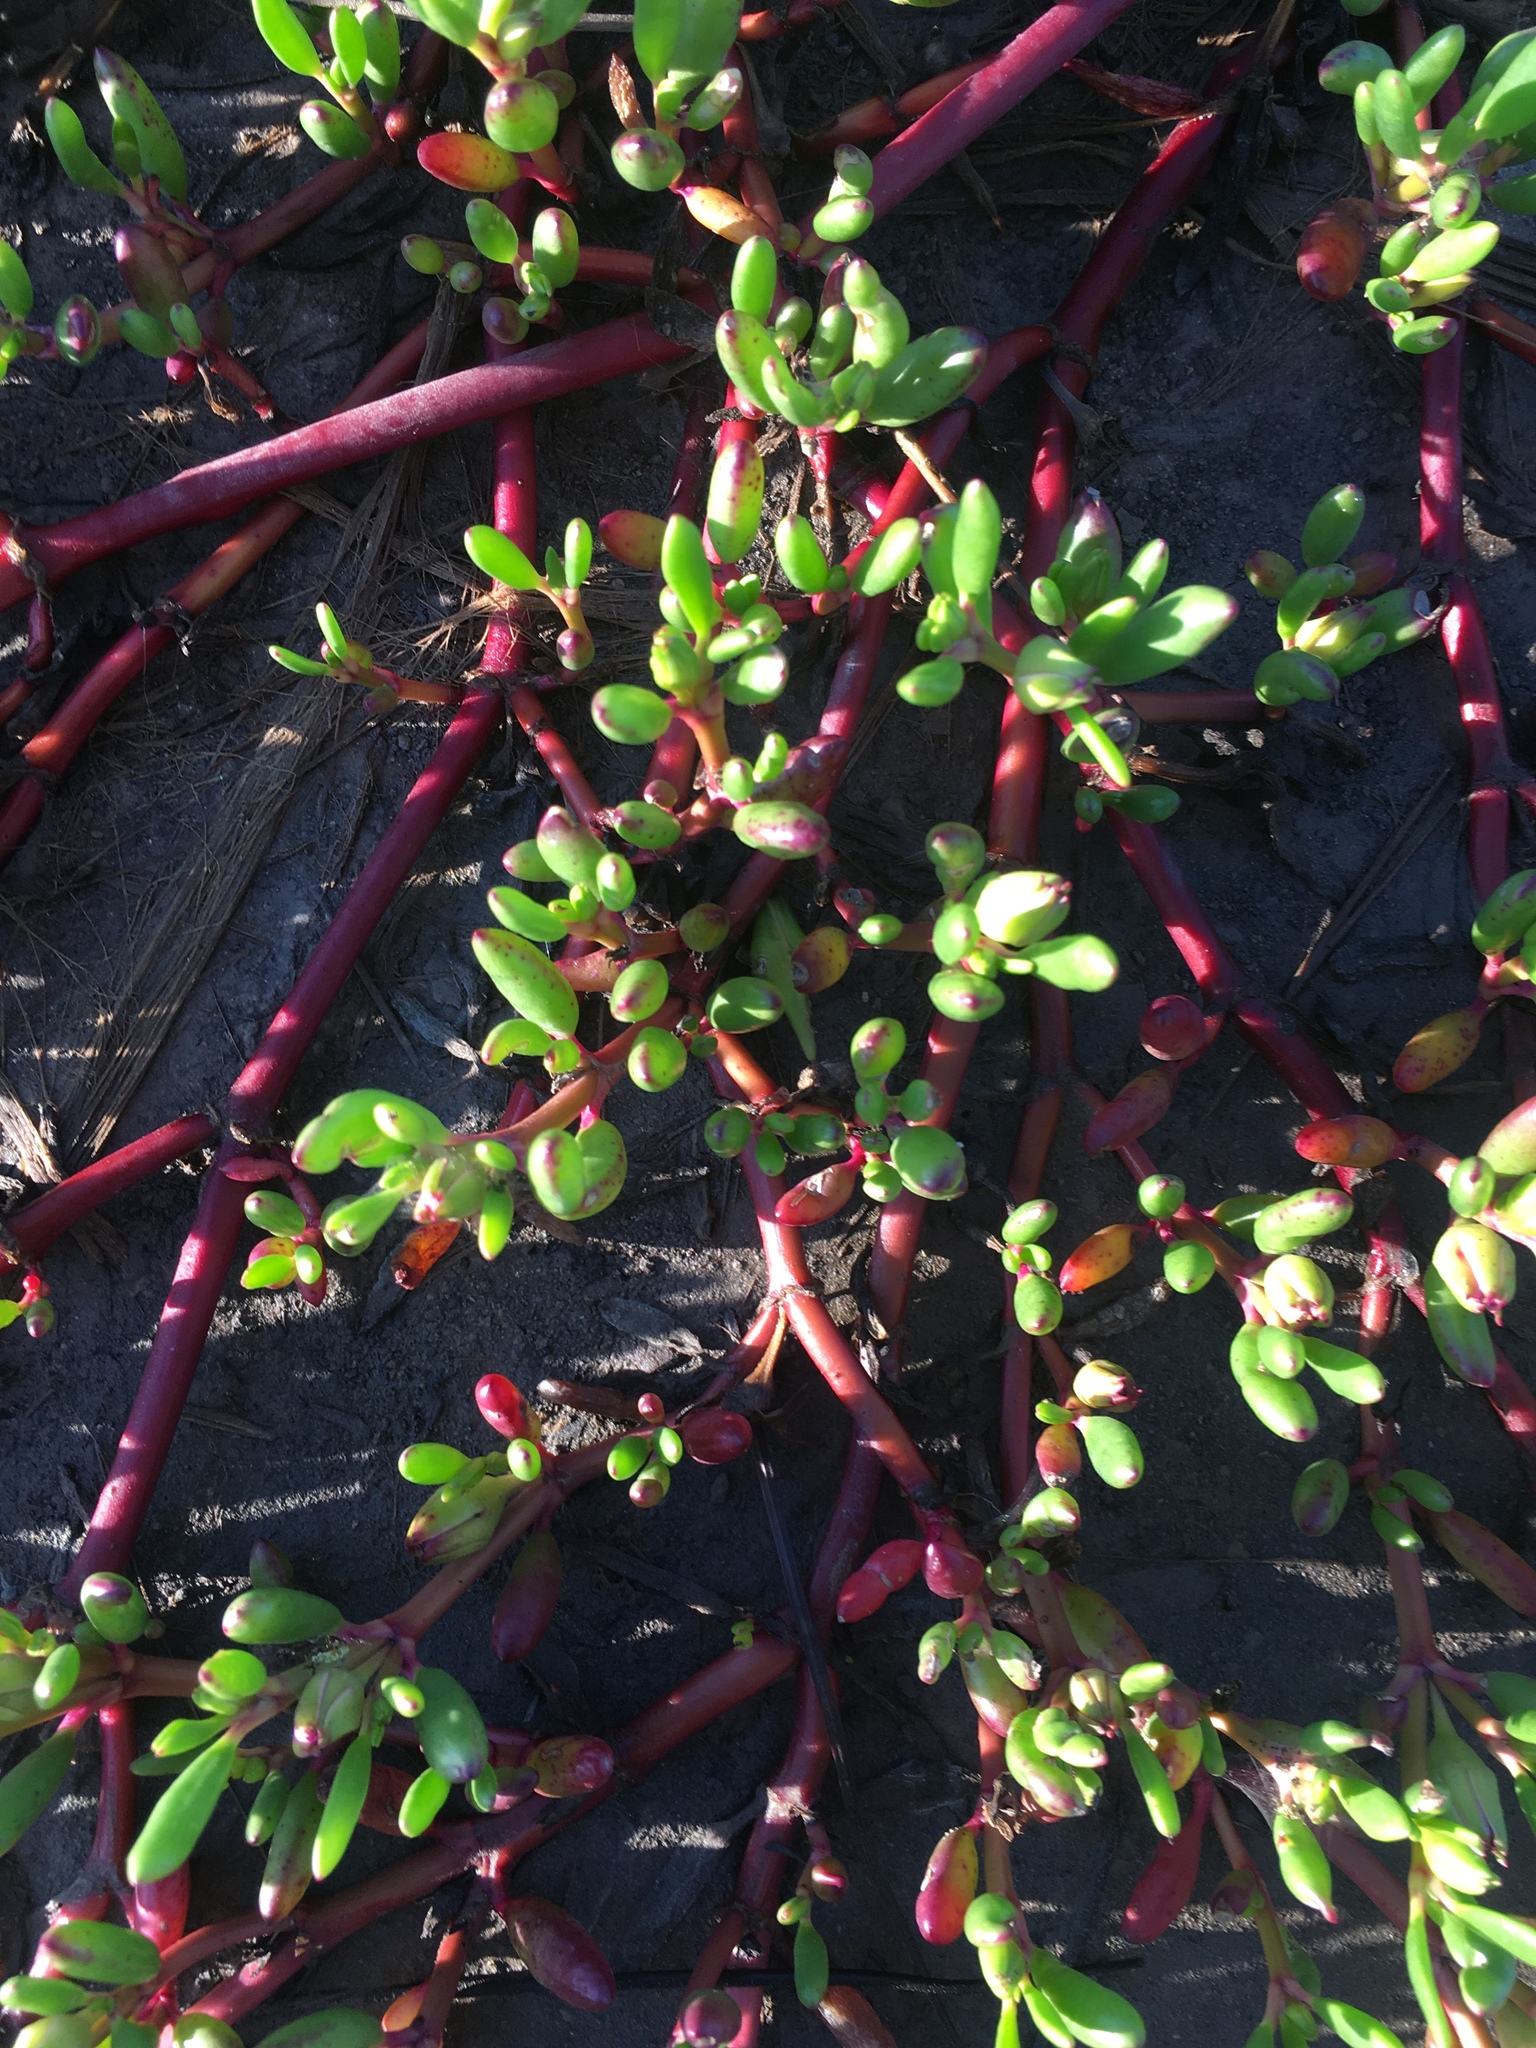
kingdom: Plantae
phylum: Tracheophyta
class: Magnoliopsida
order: Caryophyllales
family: Aizoaceae
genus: Sesuvium
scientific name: Sesuvium portulacastrum
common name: Sea-purslane
